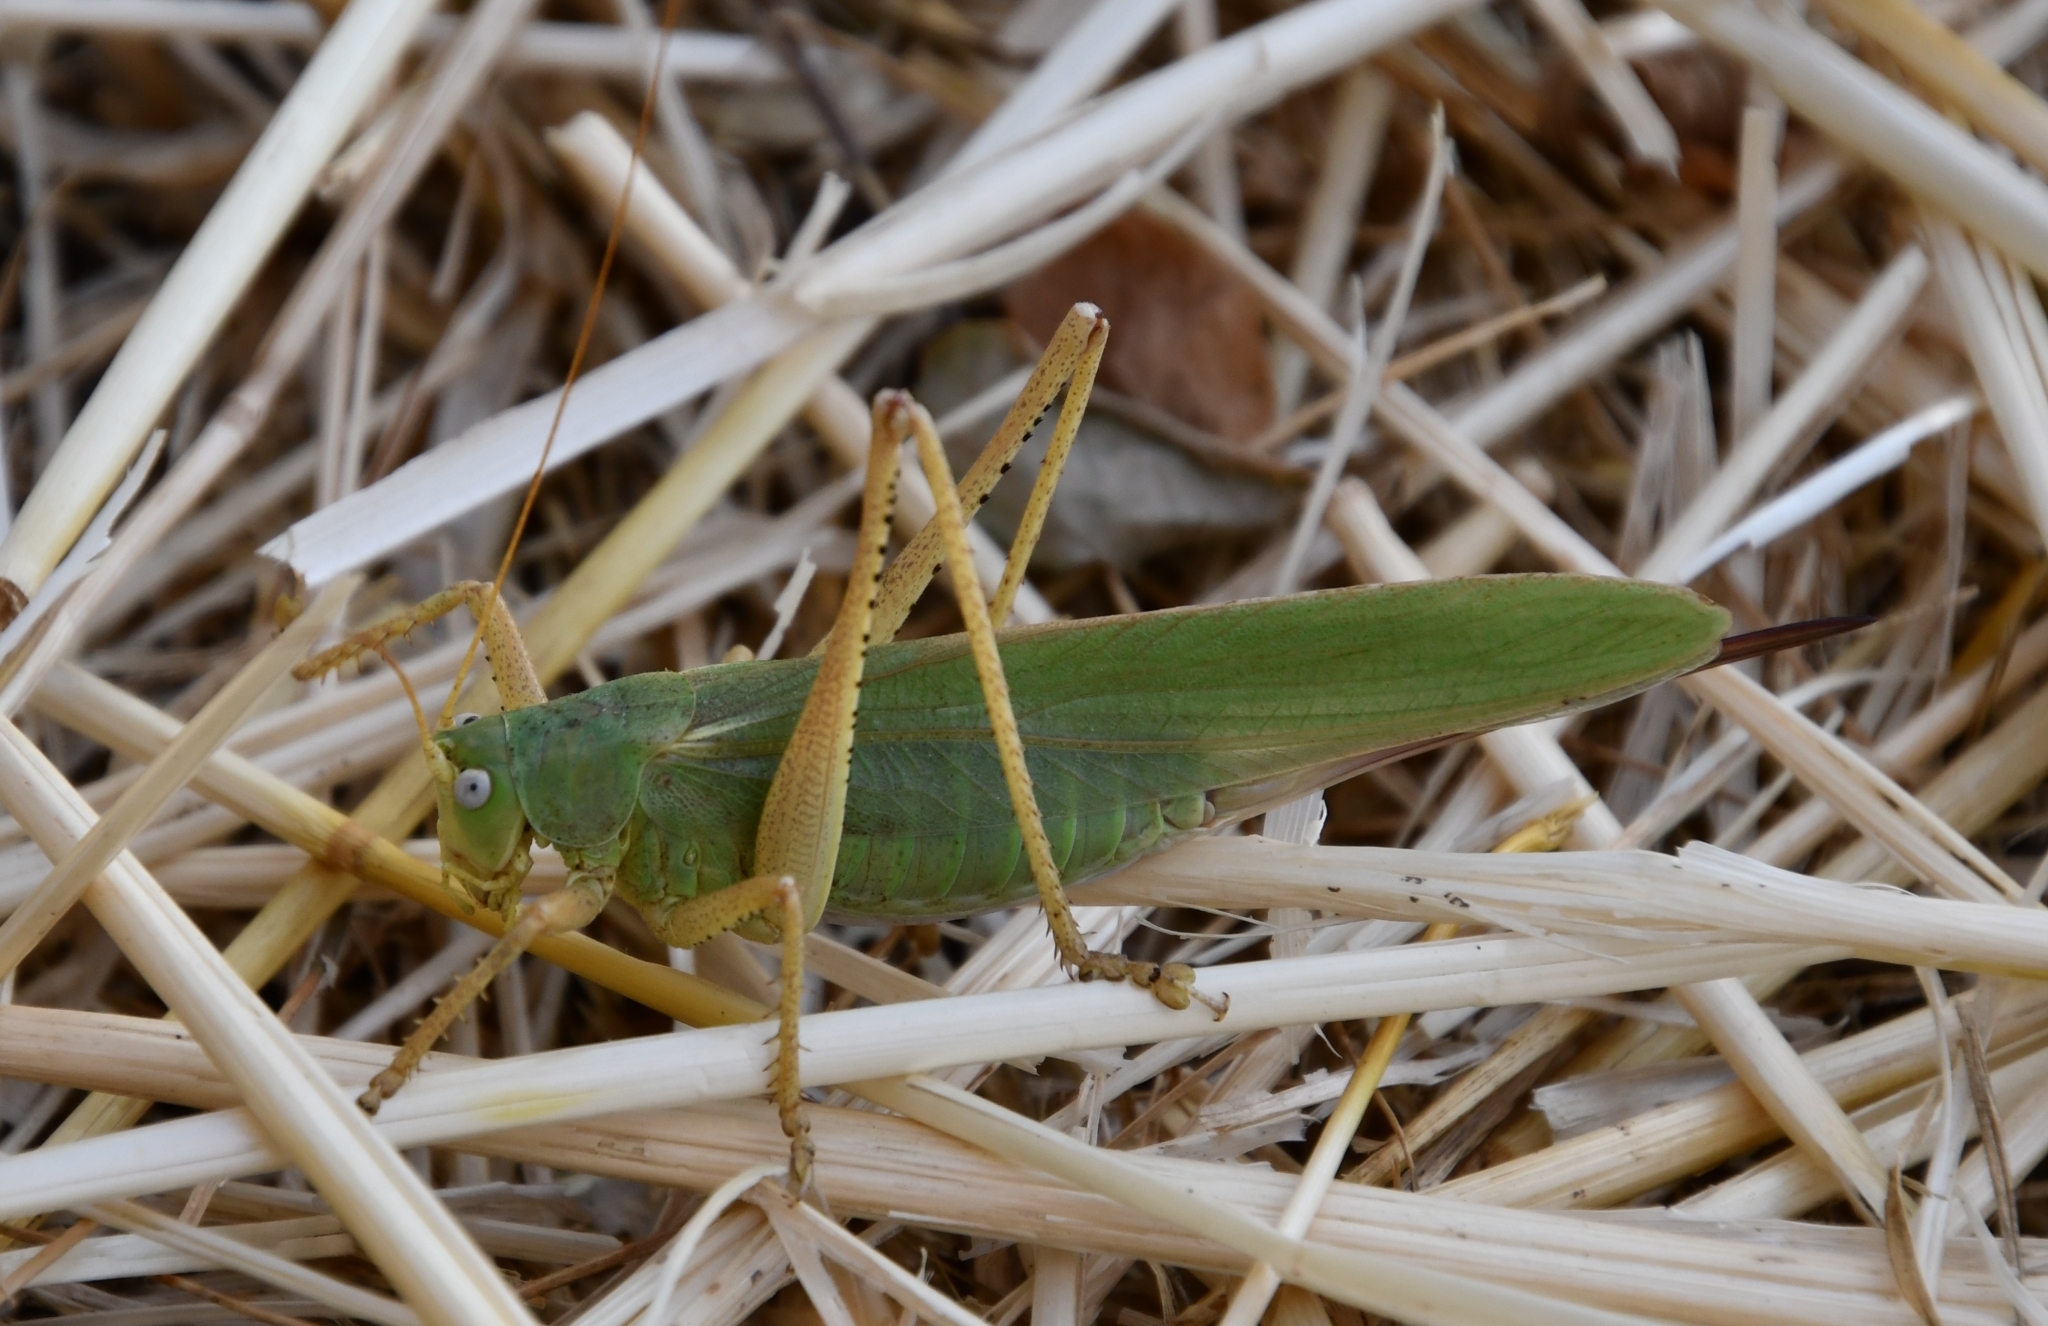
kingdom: Animalia
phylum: Arthropoda
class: Insecta
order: Orthoptera
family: Tettigoniidae
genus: Tettigonia
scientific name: Tettigonia caudata
